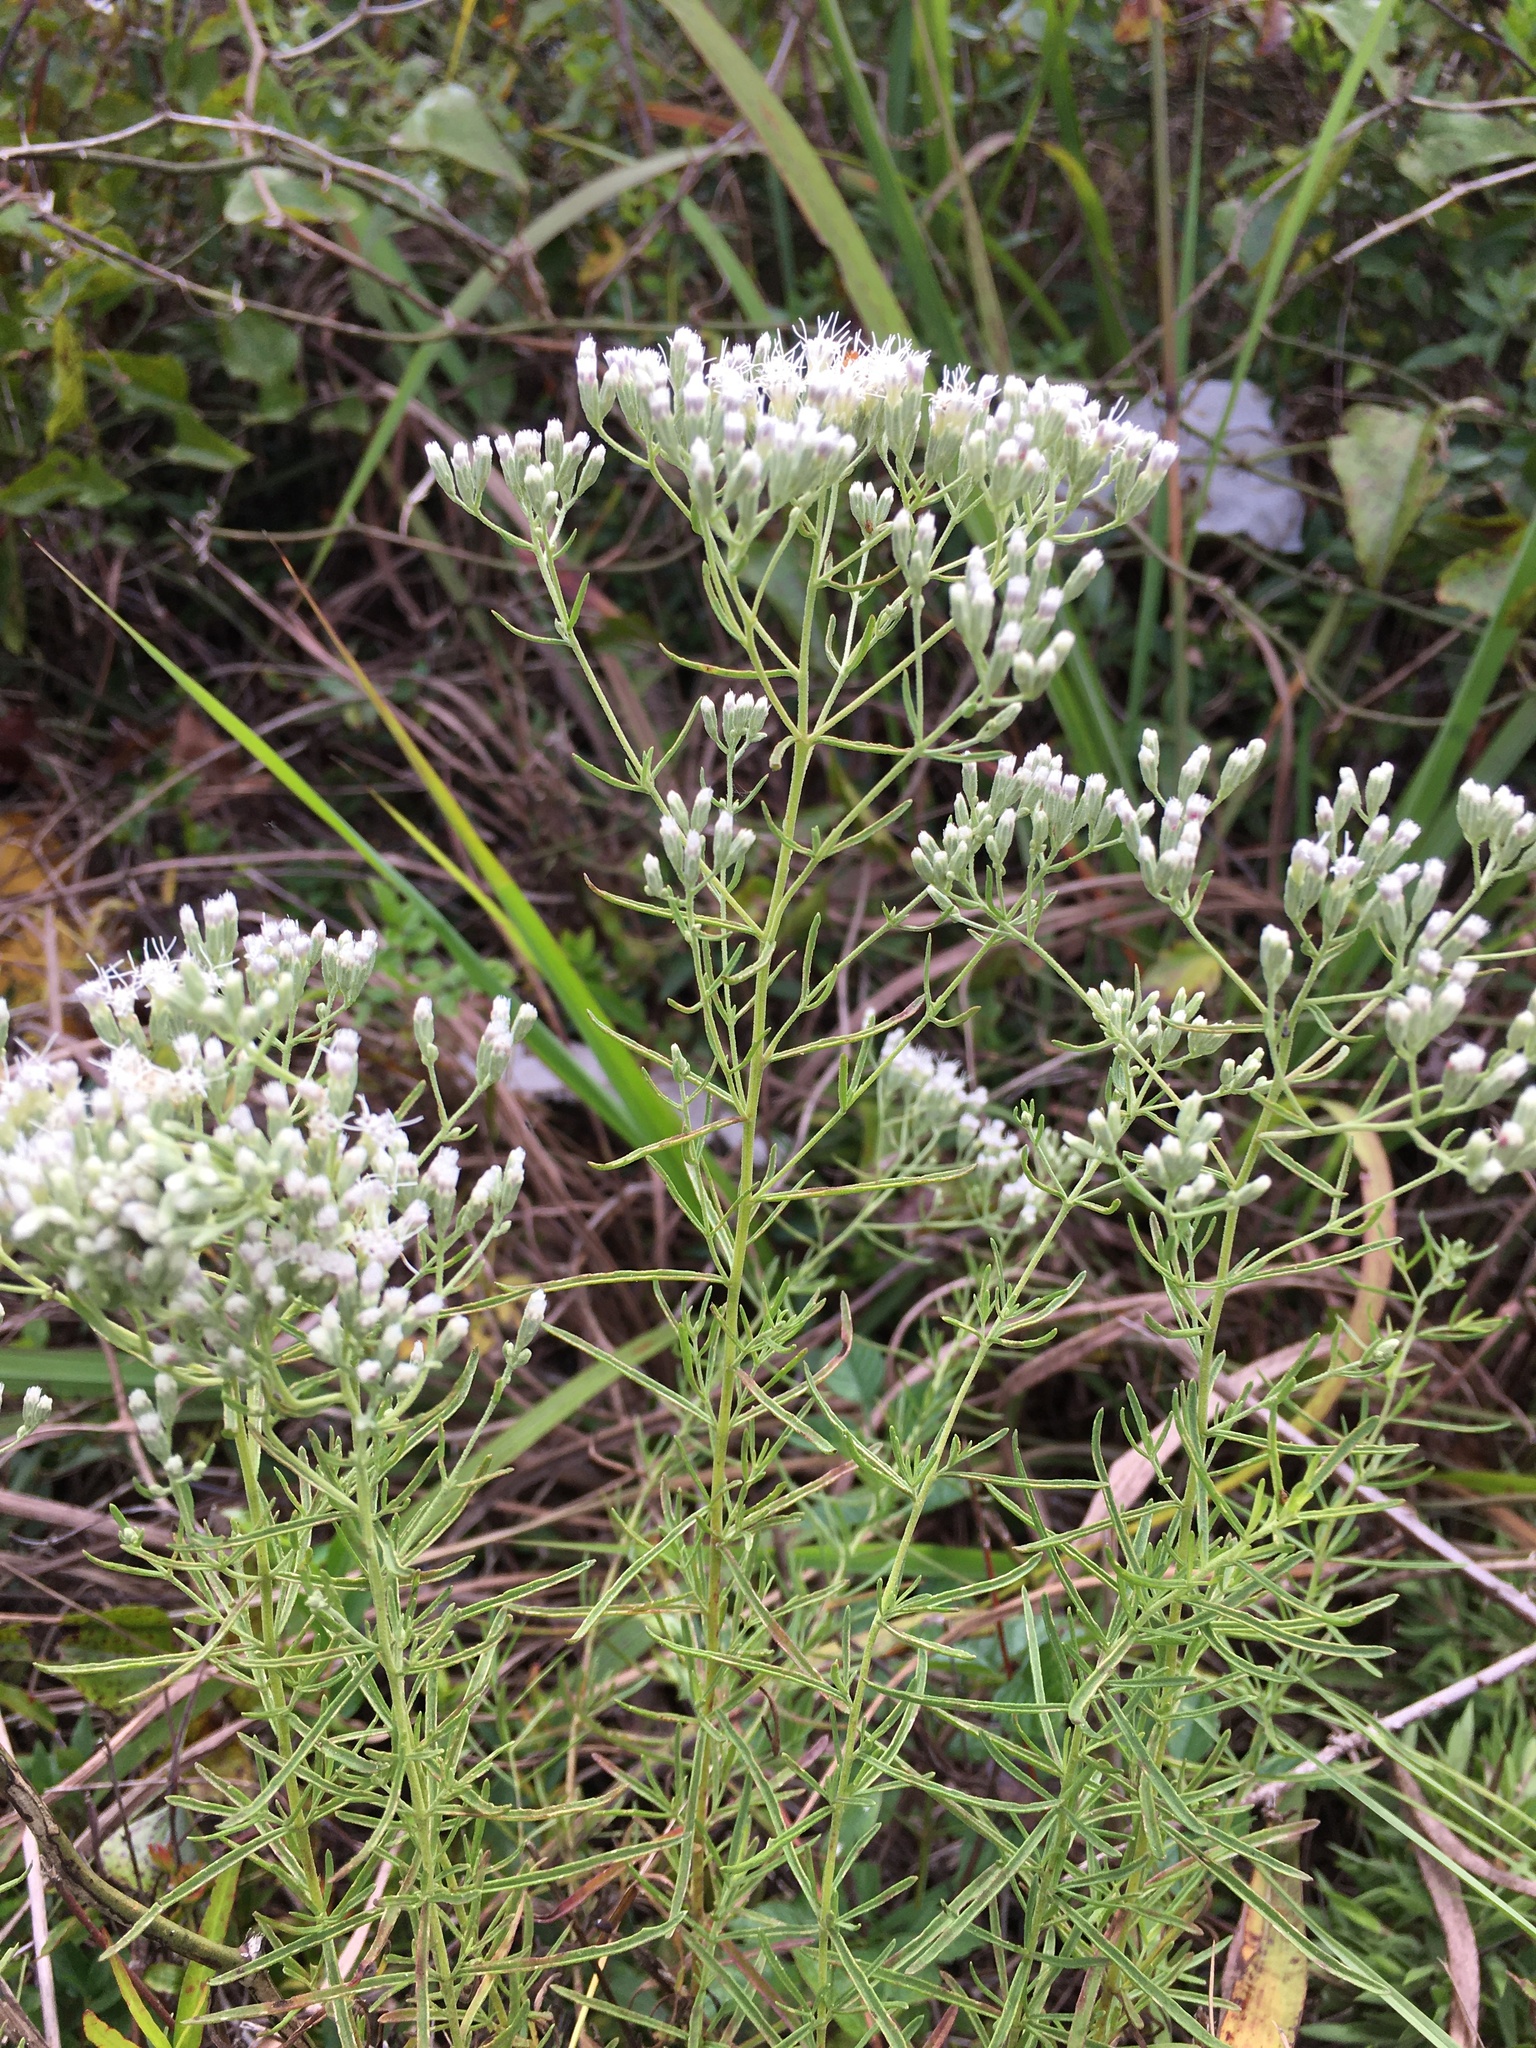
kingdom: Plantae
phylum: Tracheophyta
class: Magnoliopsida
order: Asterales
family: Asteraceae
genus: Eupatorium
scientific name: Eupatorium hyssopifolium
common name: Hyssop-leaf thoroughwort
